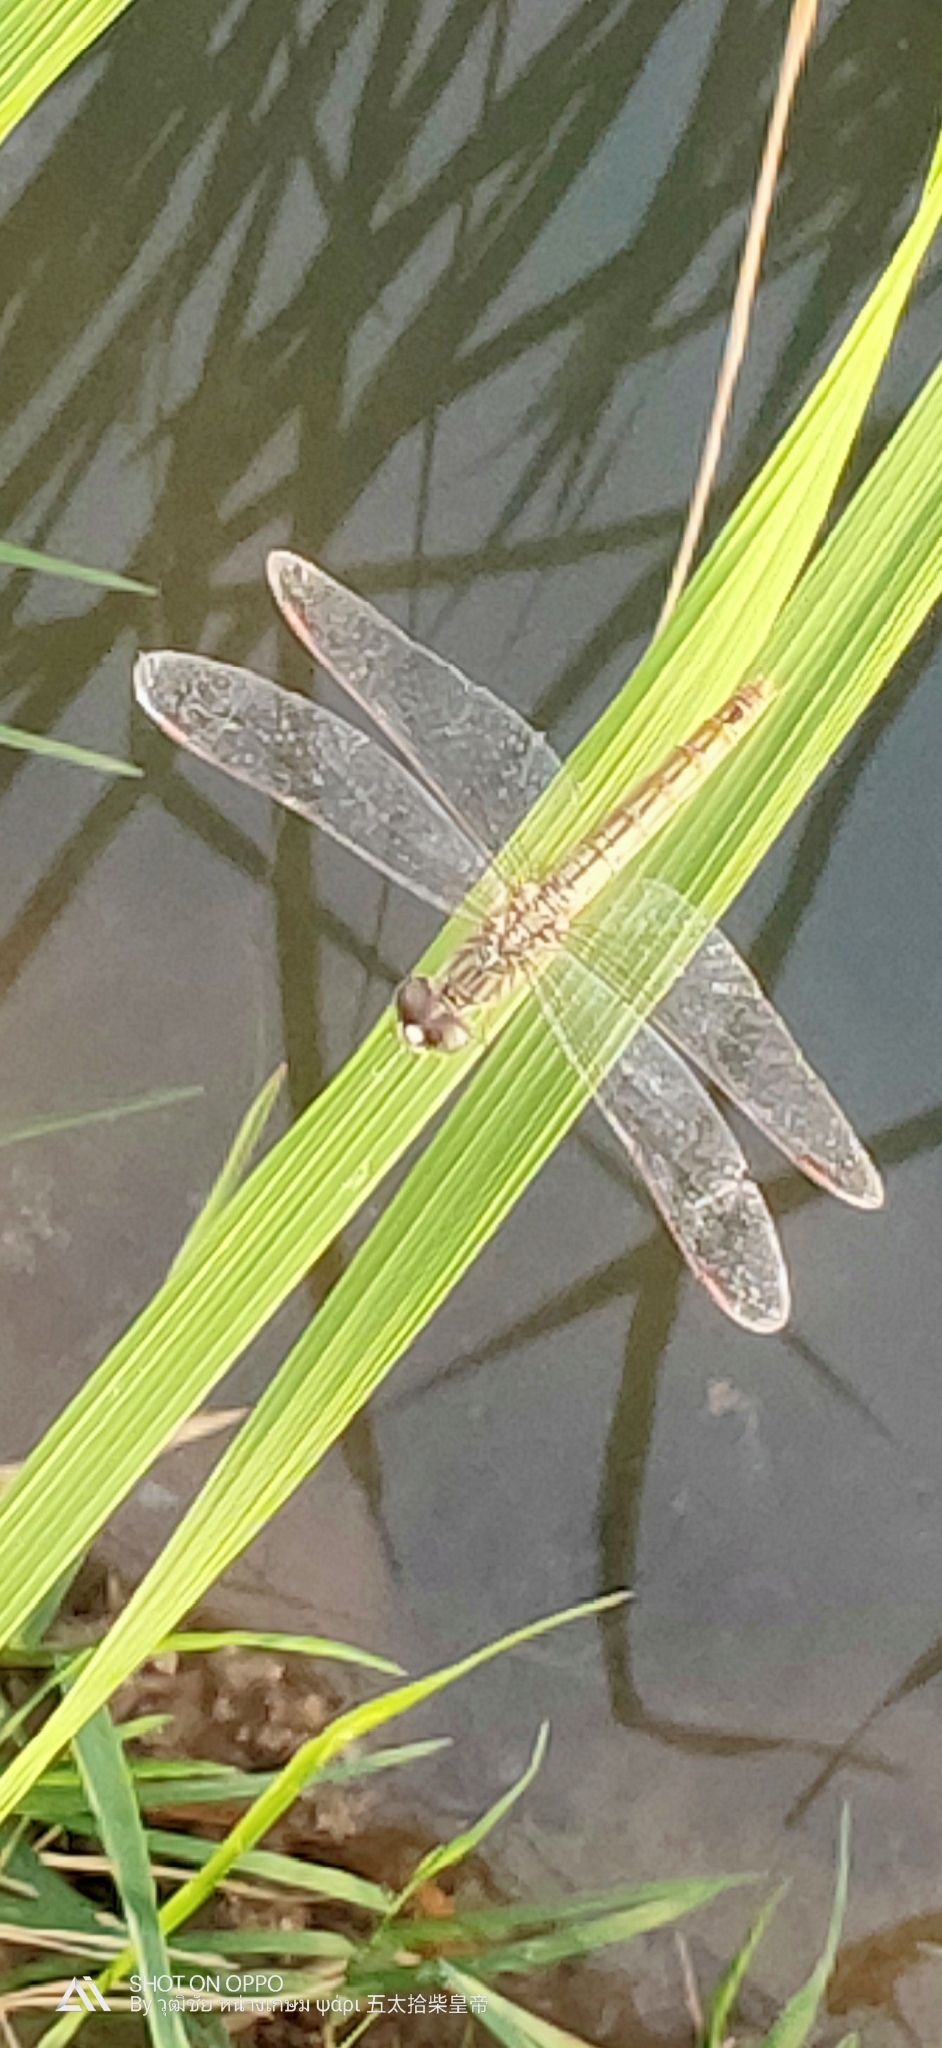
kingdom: Animalia
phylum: Arthropoda
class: Insecta
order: Odonata
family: Libellulidae
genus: Brachythemis
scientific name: Brachythemis contaminata
